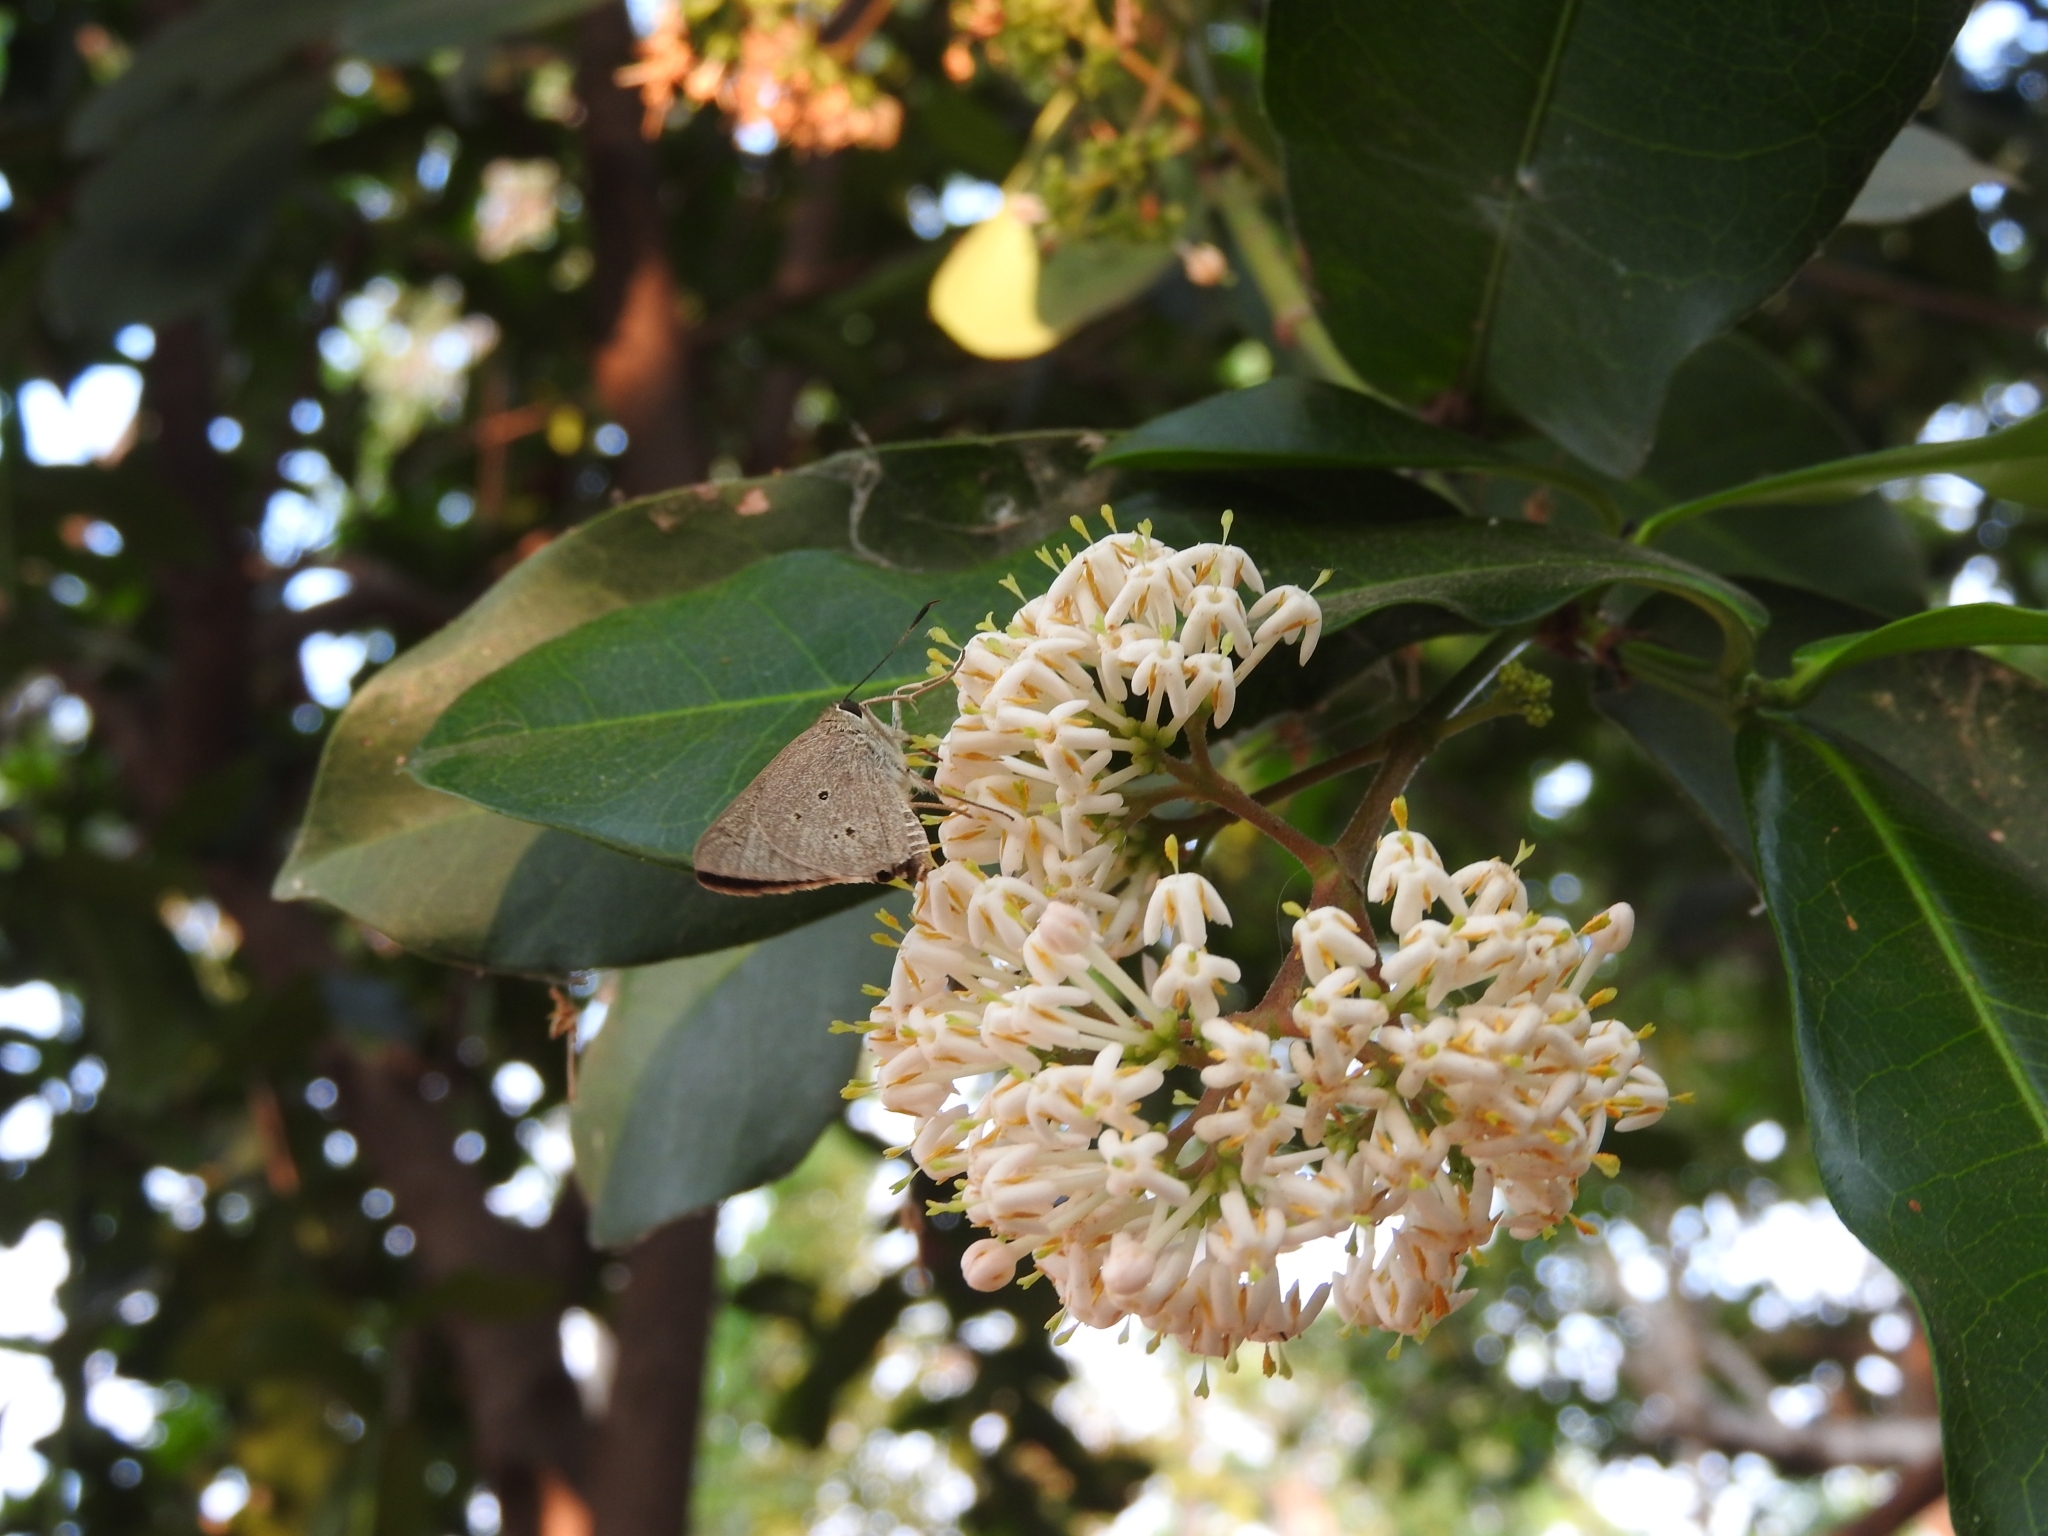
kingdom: Animalia
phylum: Arthropoda
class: Insecta
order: Lepidoptera
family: Hesperiidae
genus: Suastus
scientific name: Suastus gremius
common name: Indian palm bob
